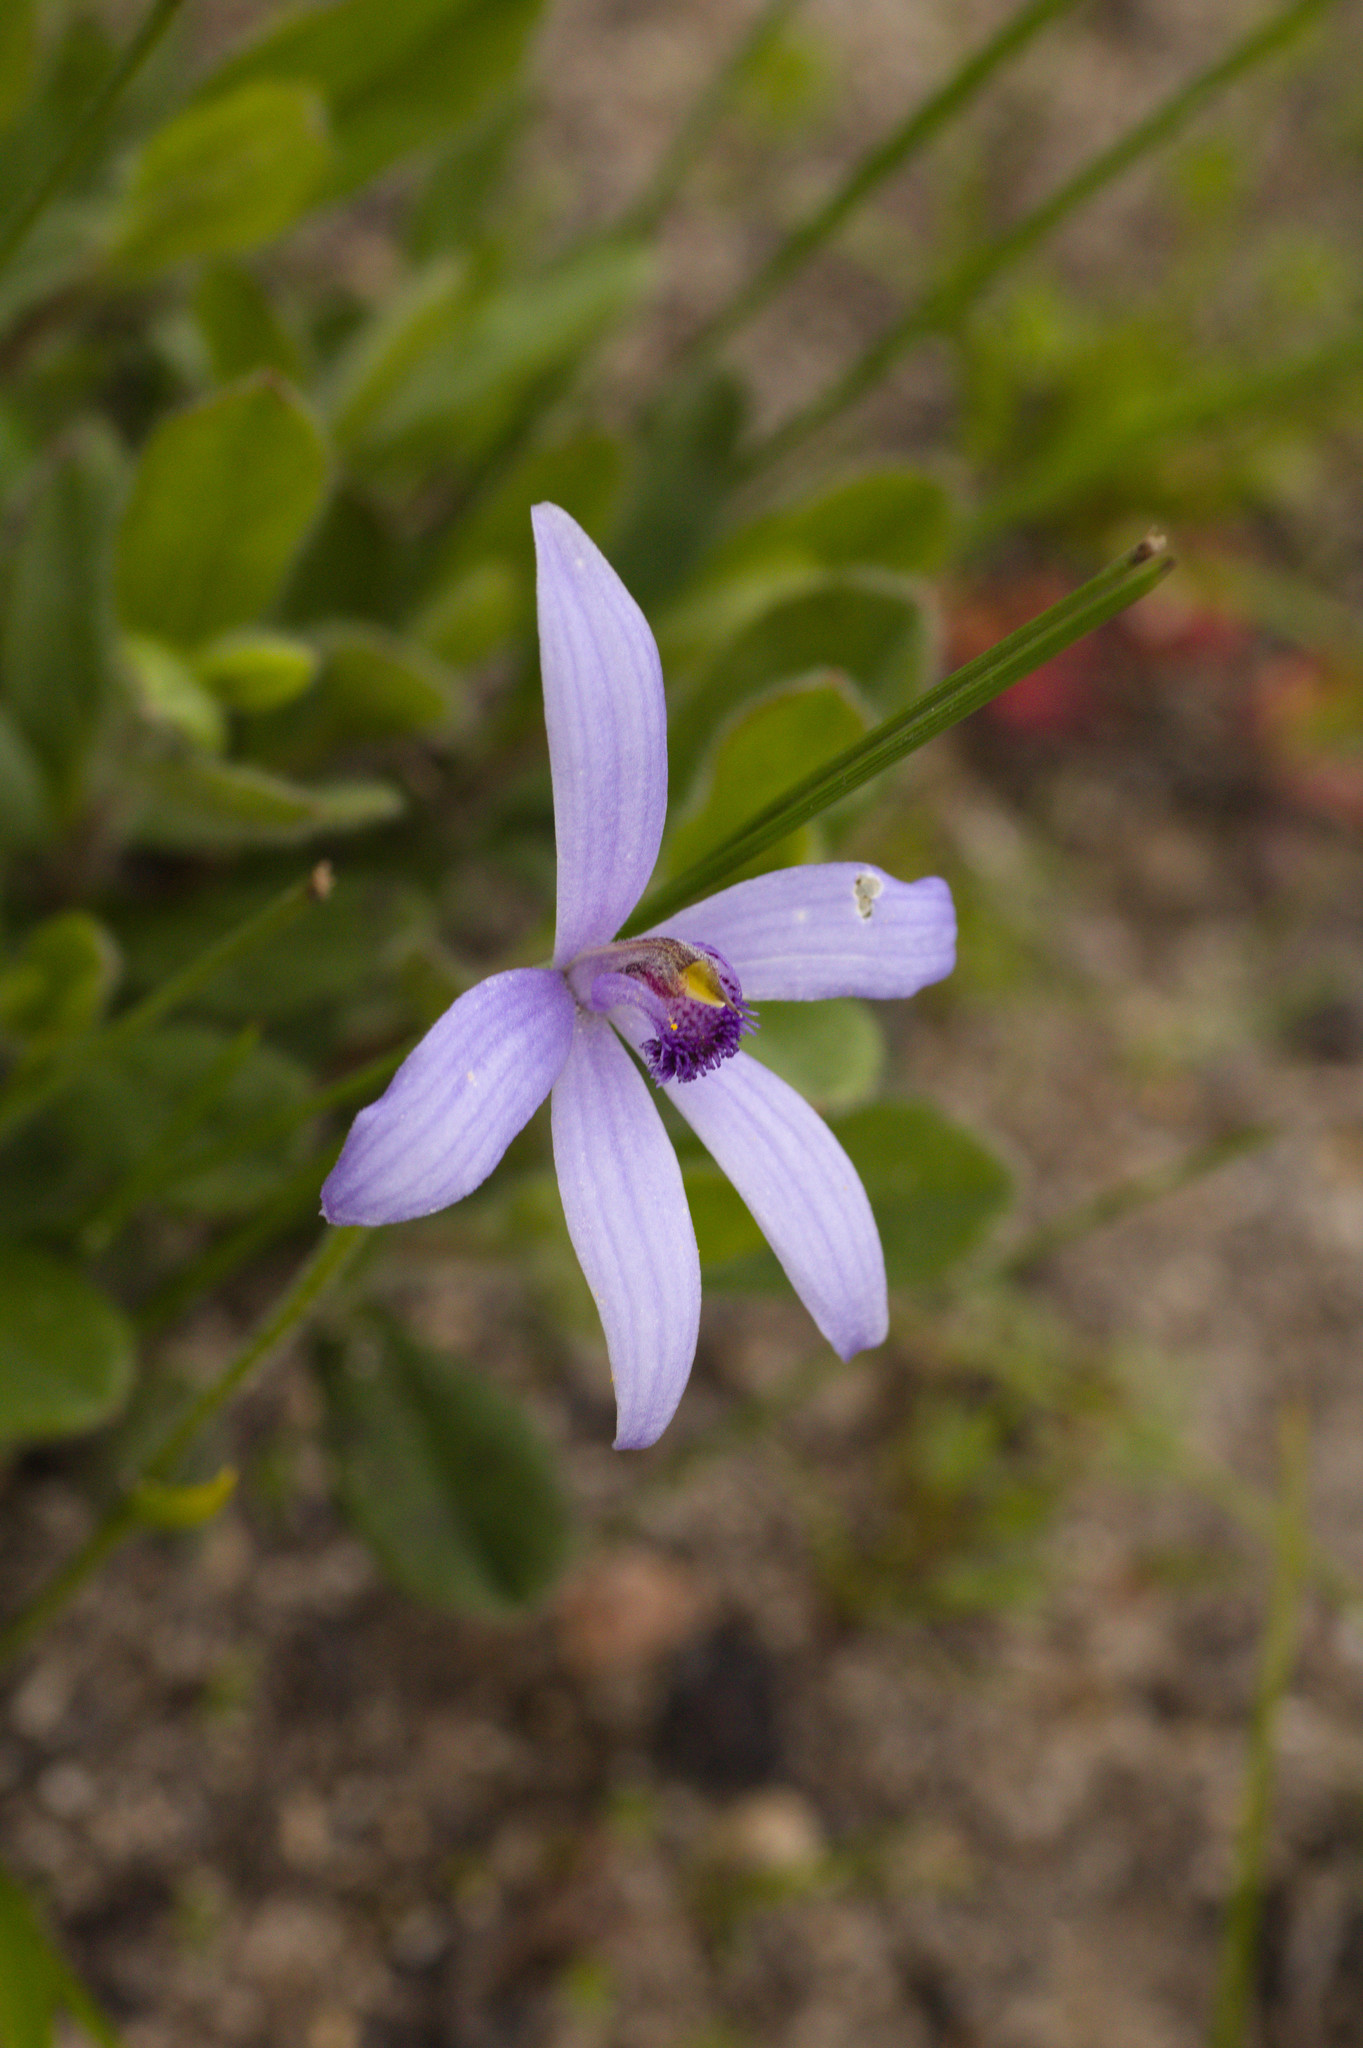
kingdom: Plantae
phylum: Tracheophyta
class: Liliopsida
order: Asparagales
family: Orchidaceae
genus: Pheladenia
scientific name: Pheladenia deformis
